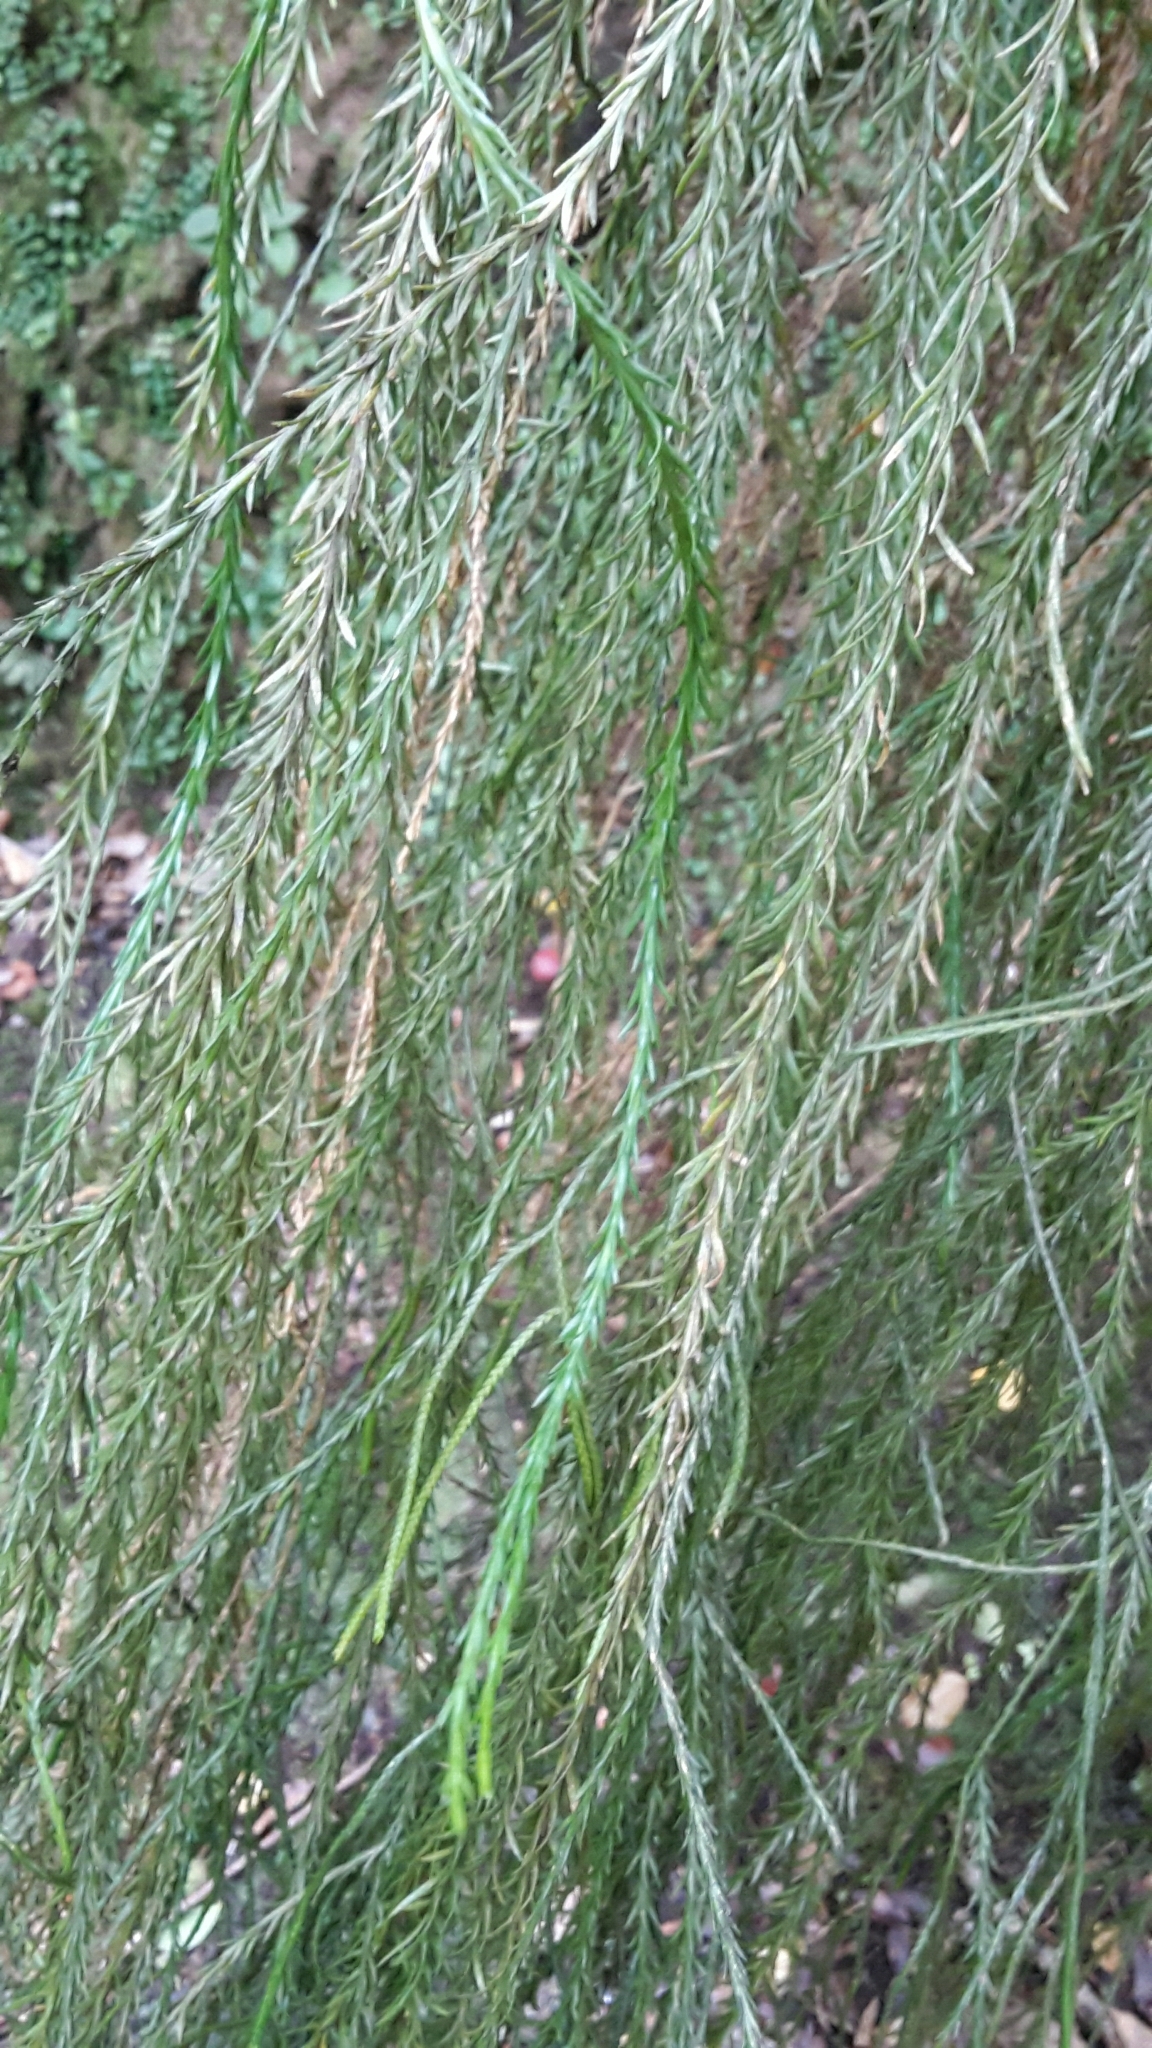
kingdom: Plantae
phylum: Tracheophyta
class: Lycopodiopsida
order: Lycopodiales
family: Lycopodiaceae
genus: Phlegmariurus
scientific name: Phlegmariurus varius
